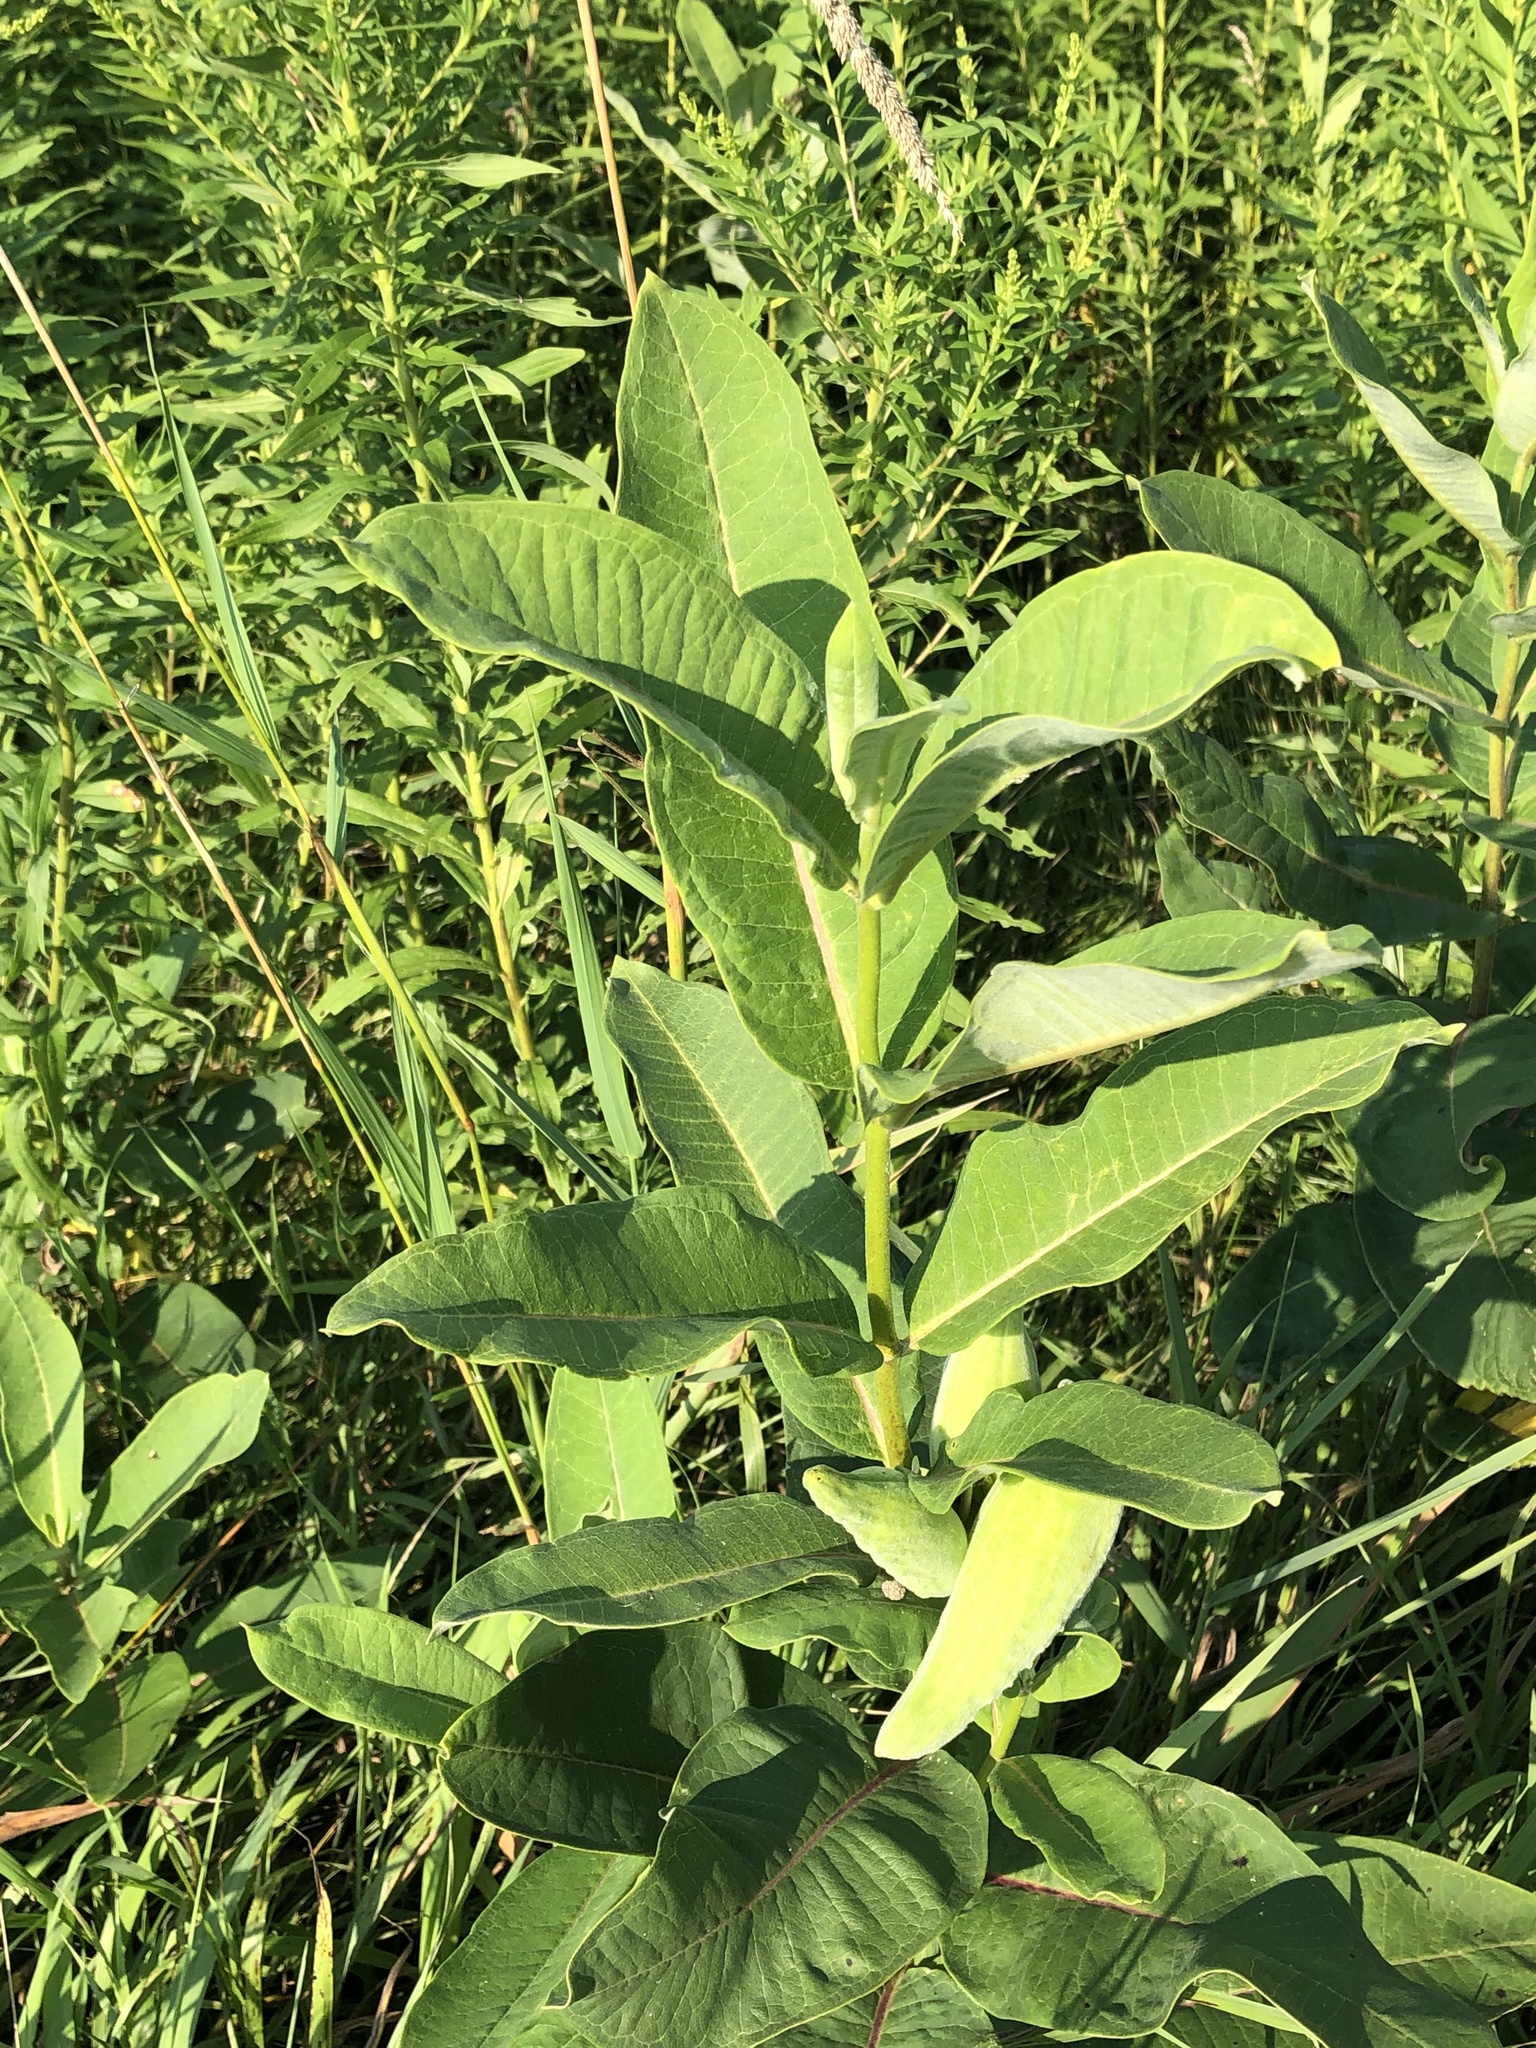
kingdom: Plantae
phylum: Tracheophyta
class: Magnoliopsida
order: Gentianales
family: Apocynaceae
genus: Asclepias
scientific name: Asclepias syriaca
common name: Common milkweed
